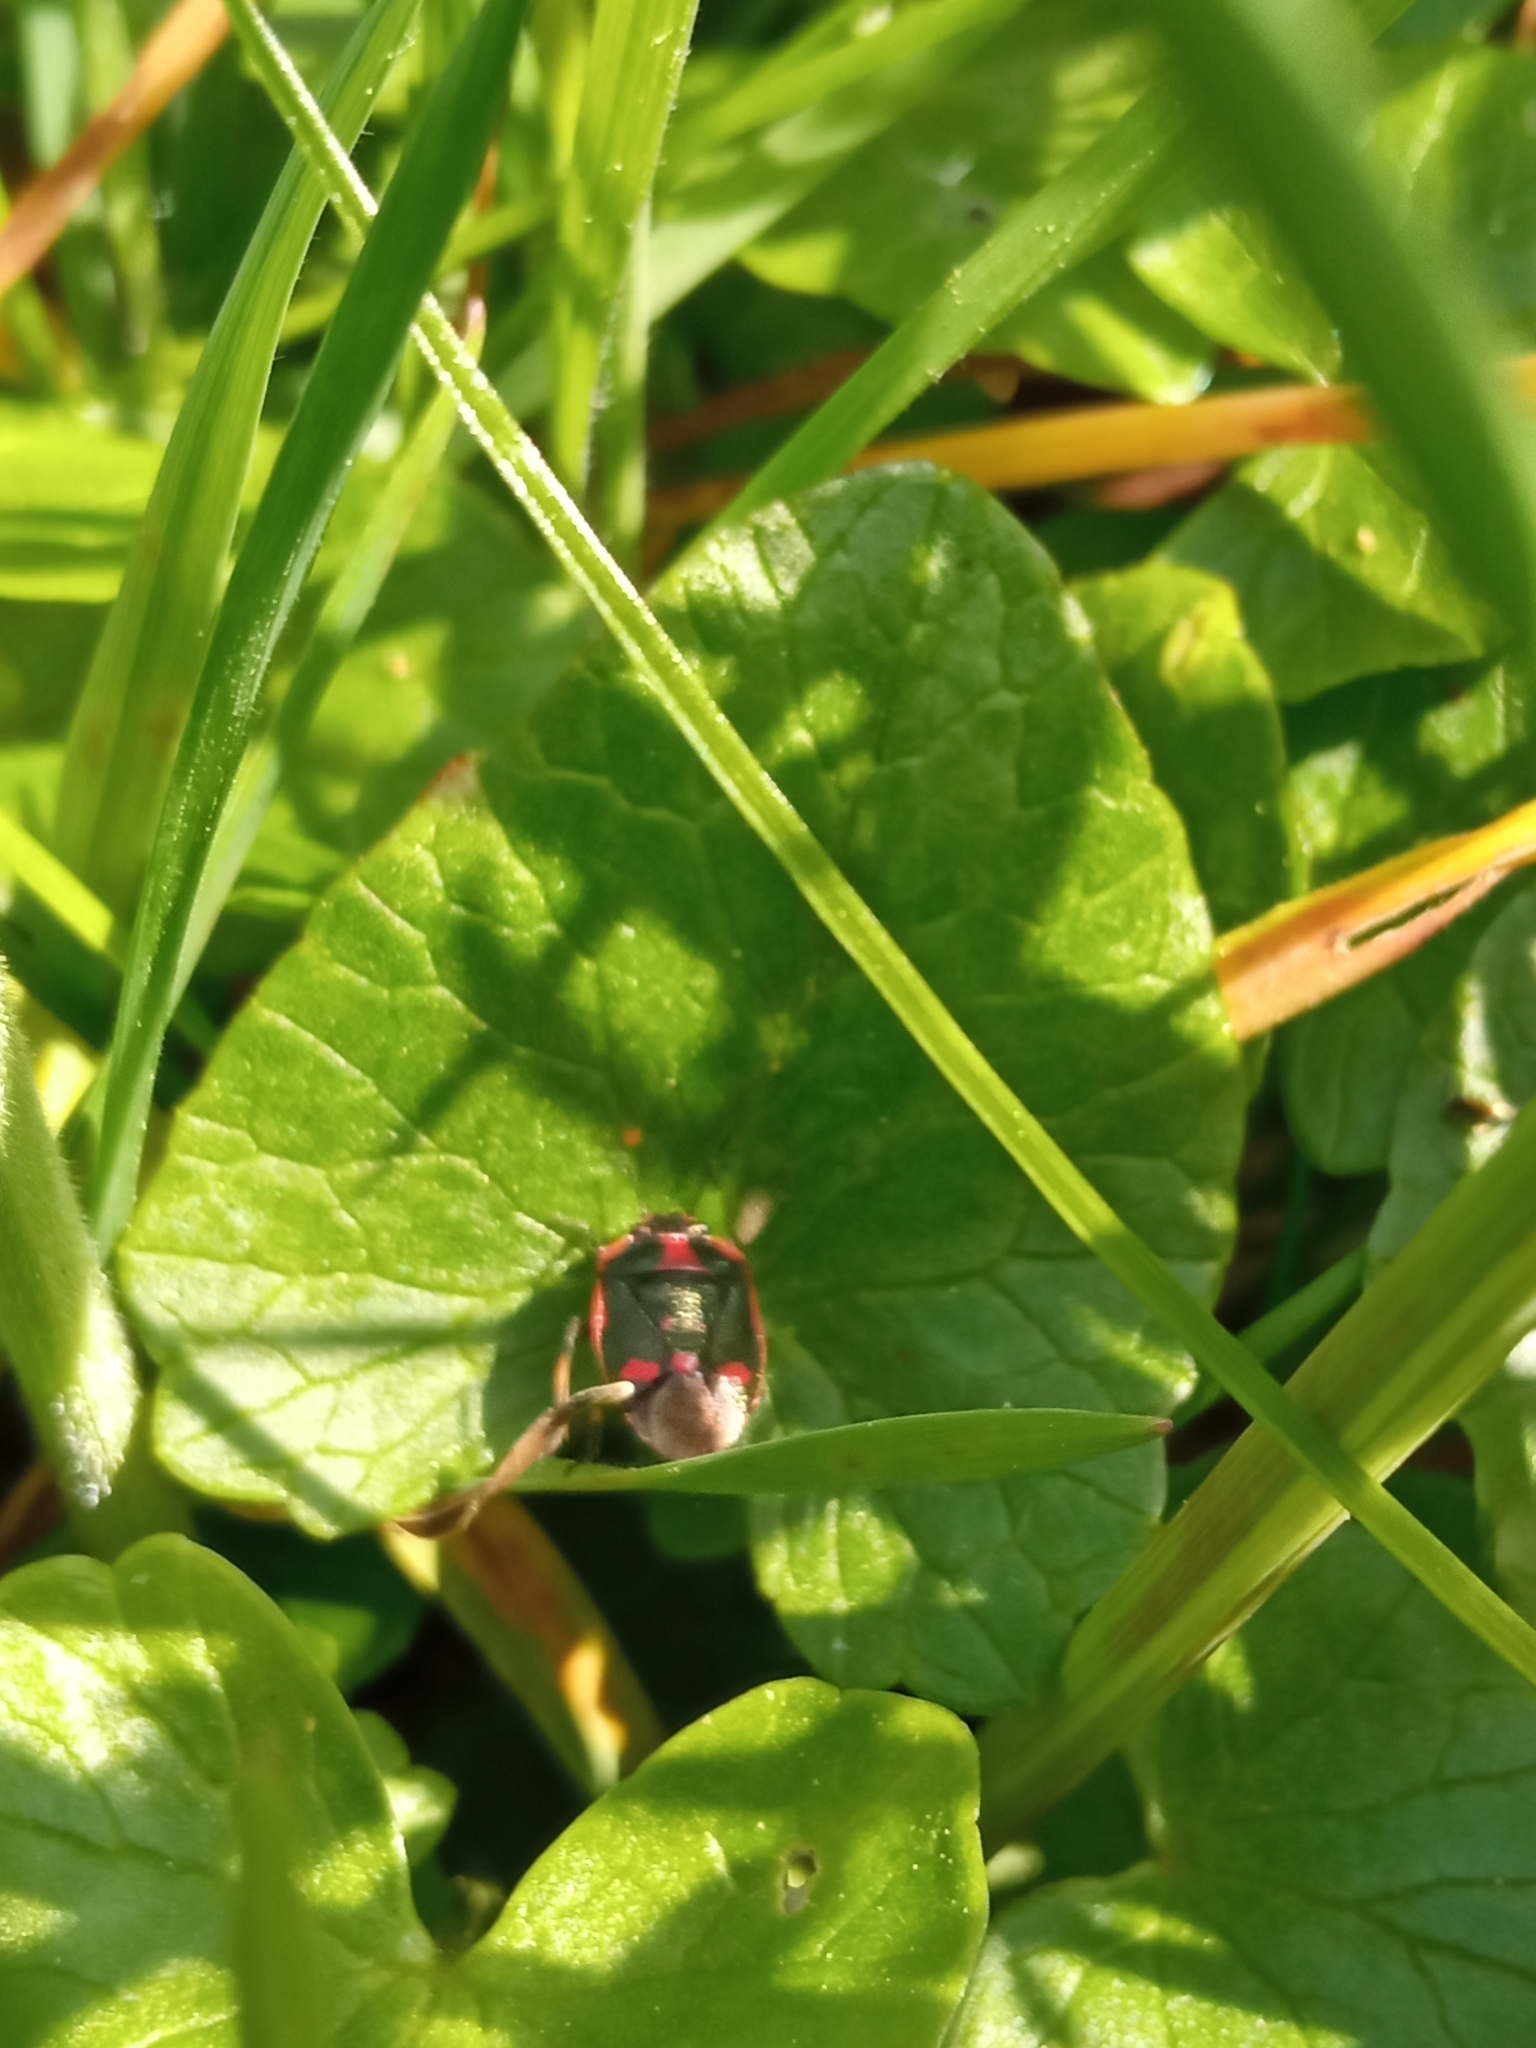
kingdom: Animalia
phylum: Arthropoda
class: Insecta
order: Hemiptera
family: Pentatomidae
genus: Eurydema
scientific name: Eurydema oleracea
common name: Cabbage bug
